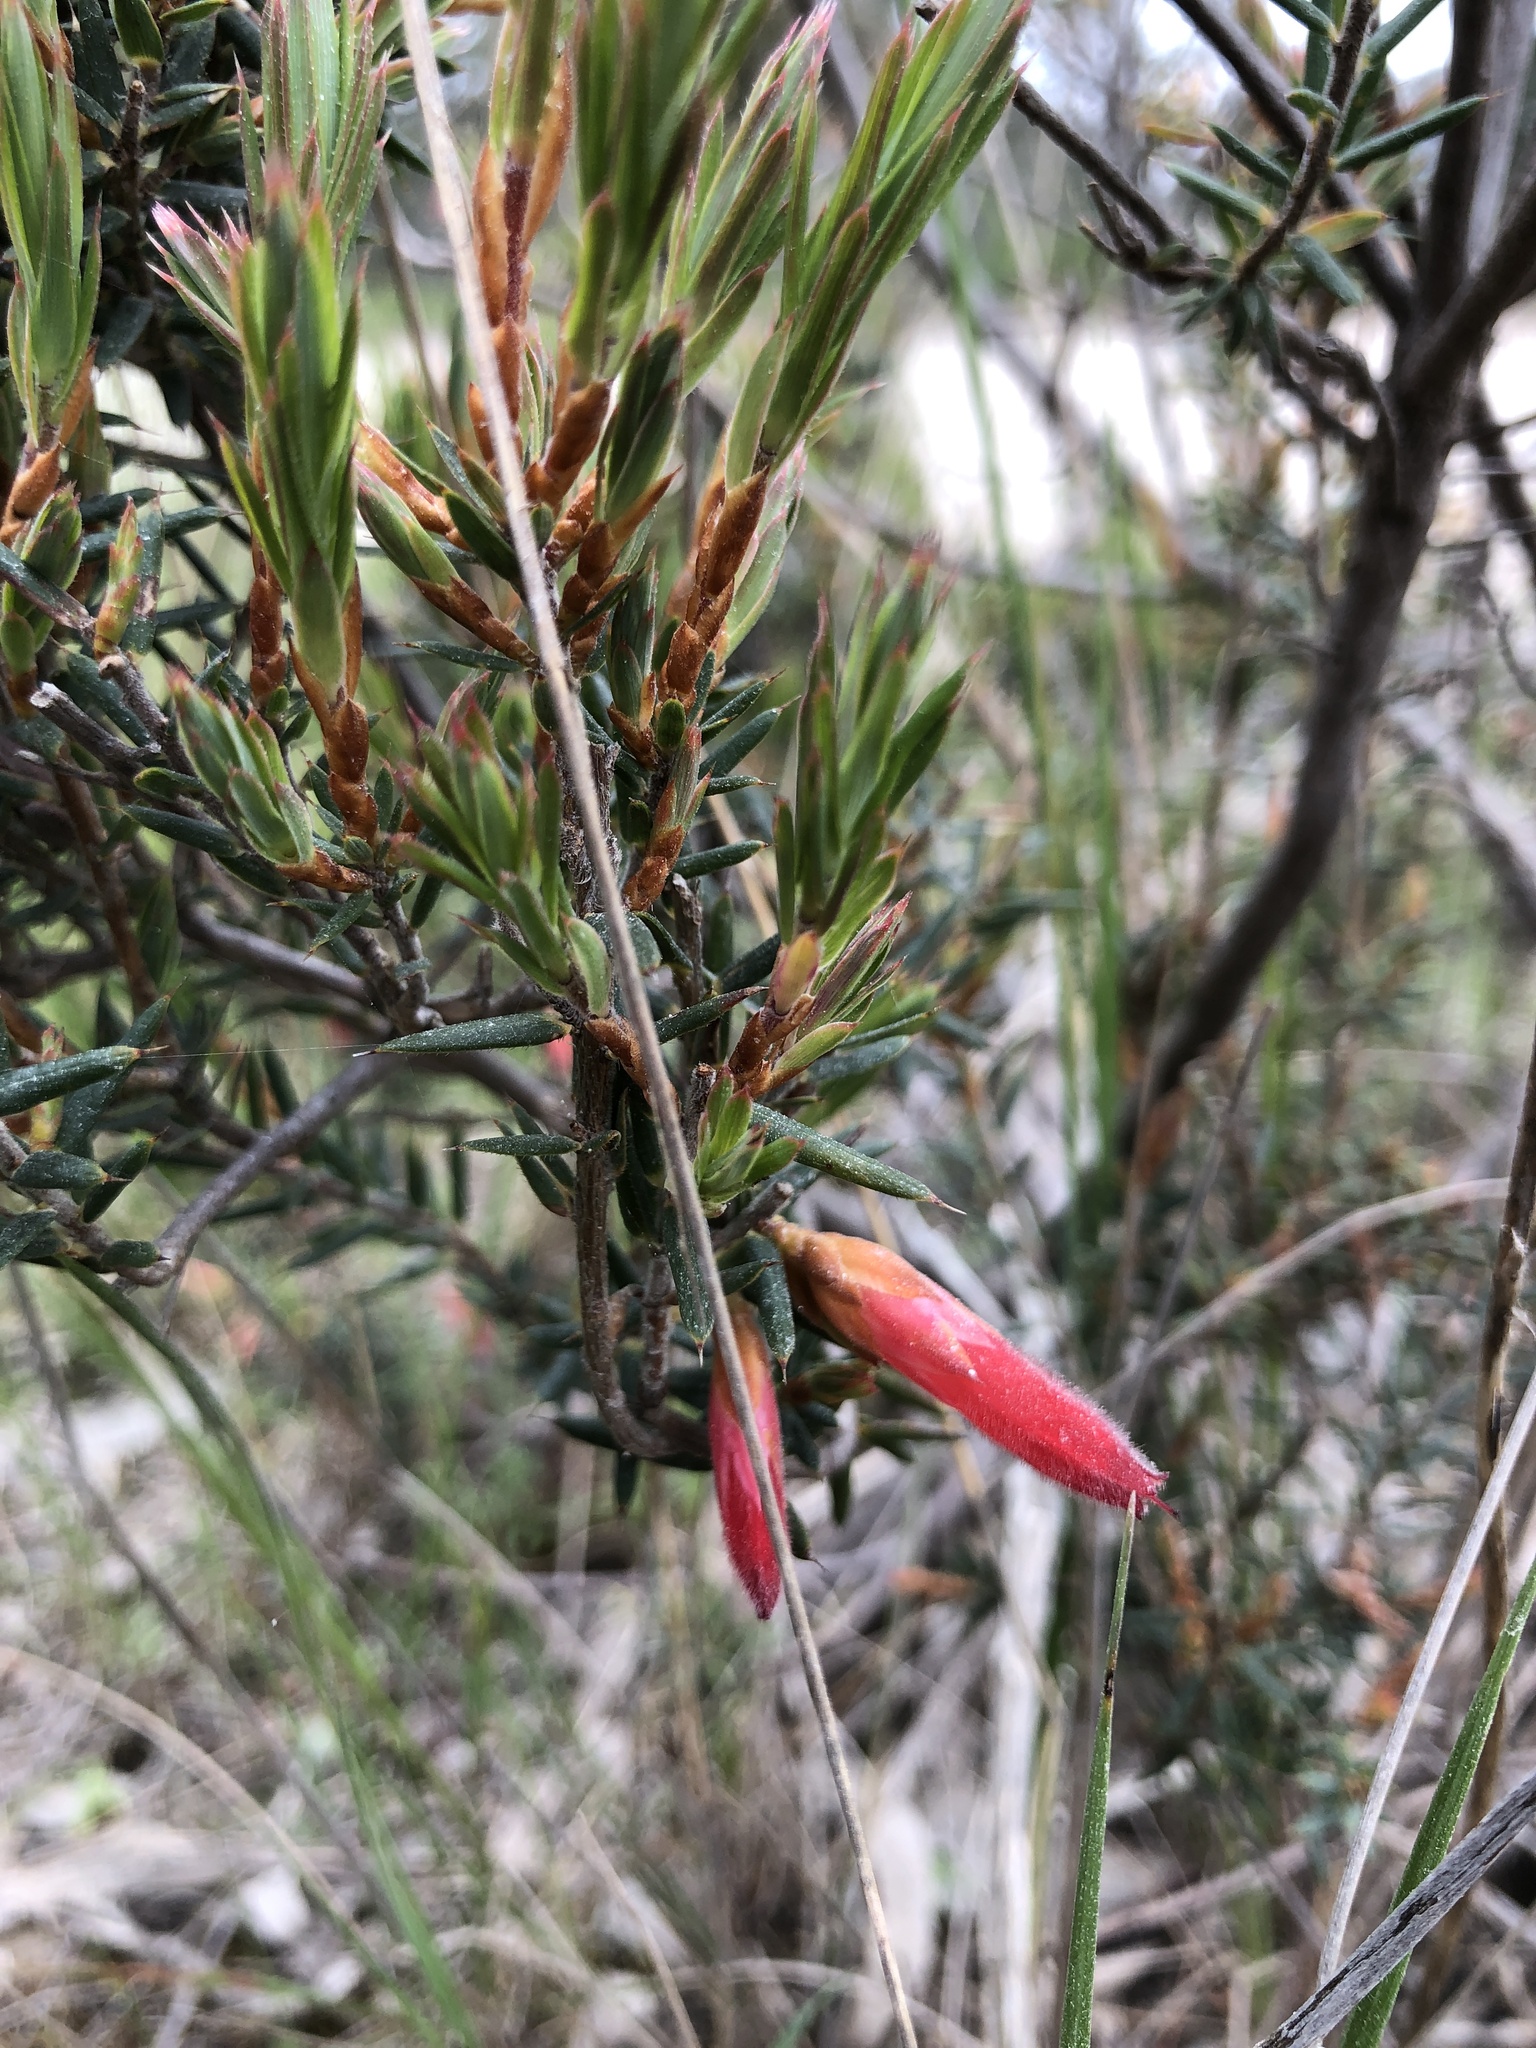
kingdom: Plantae
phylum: Tracheophyta
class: Magnoliopsida
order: Ericales
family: Ericaceae
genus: Stenanthera
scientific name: Stenanthera conostephioides
